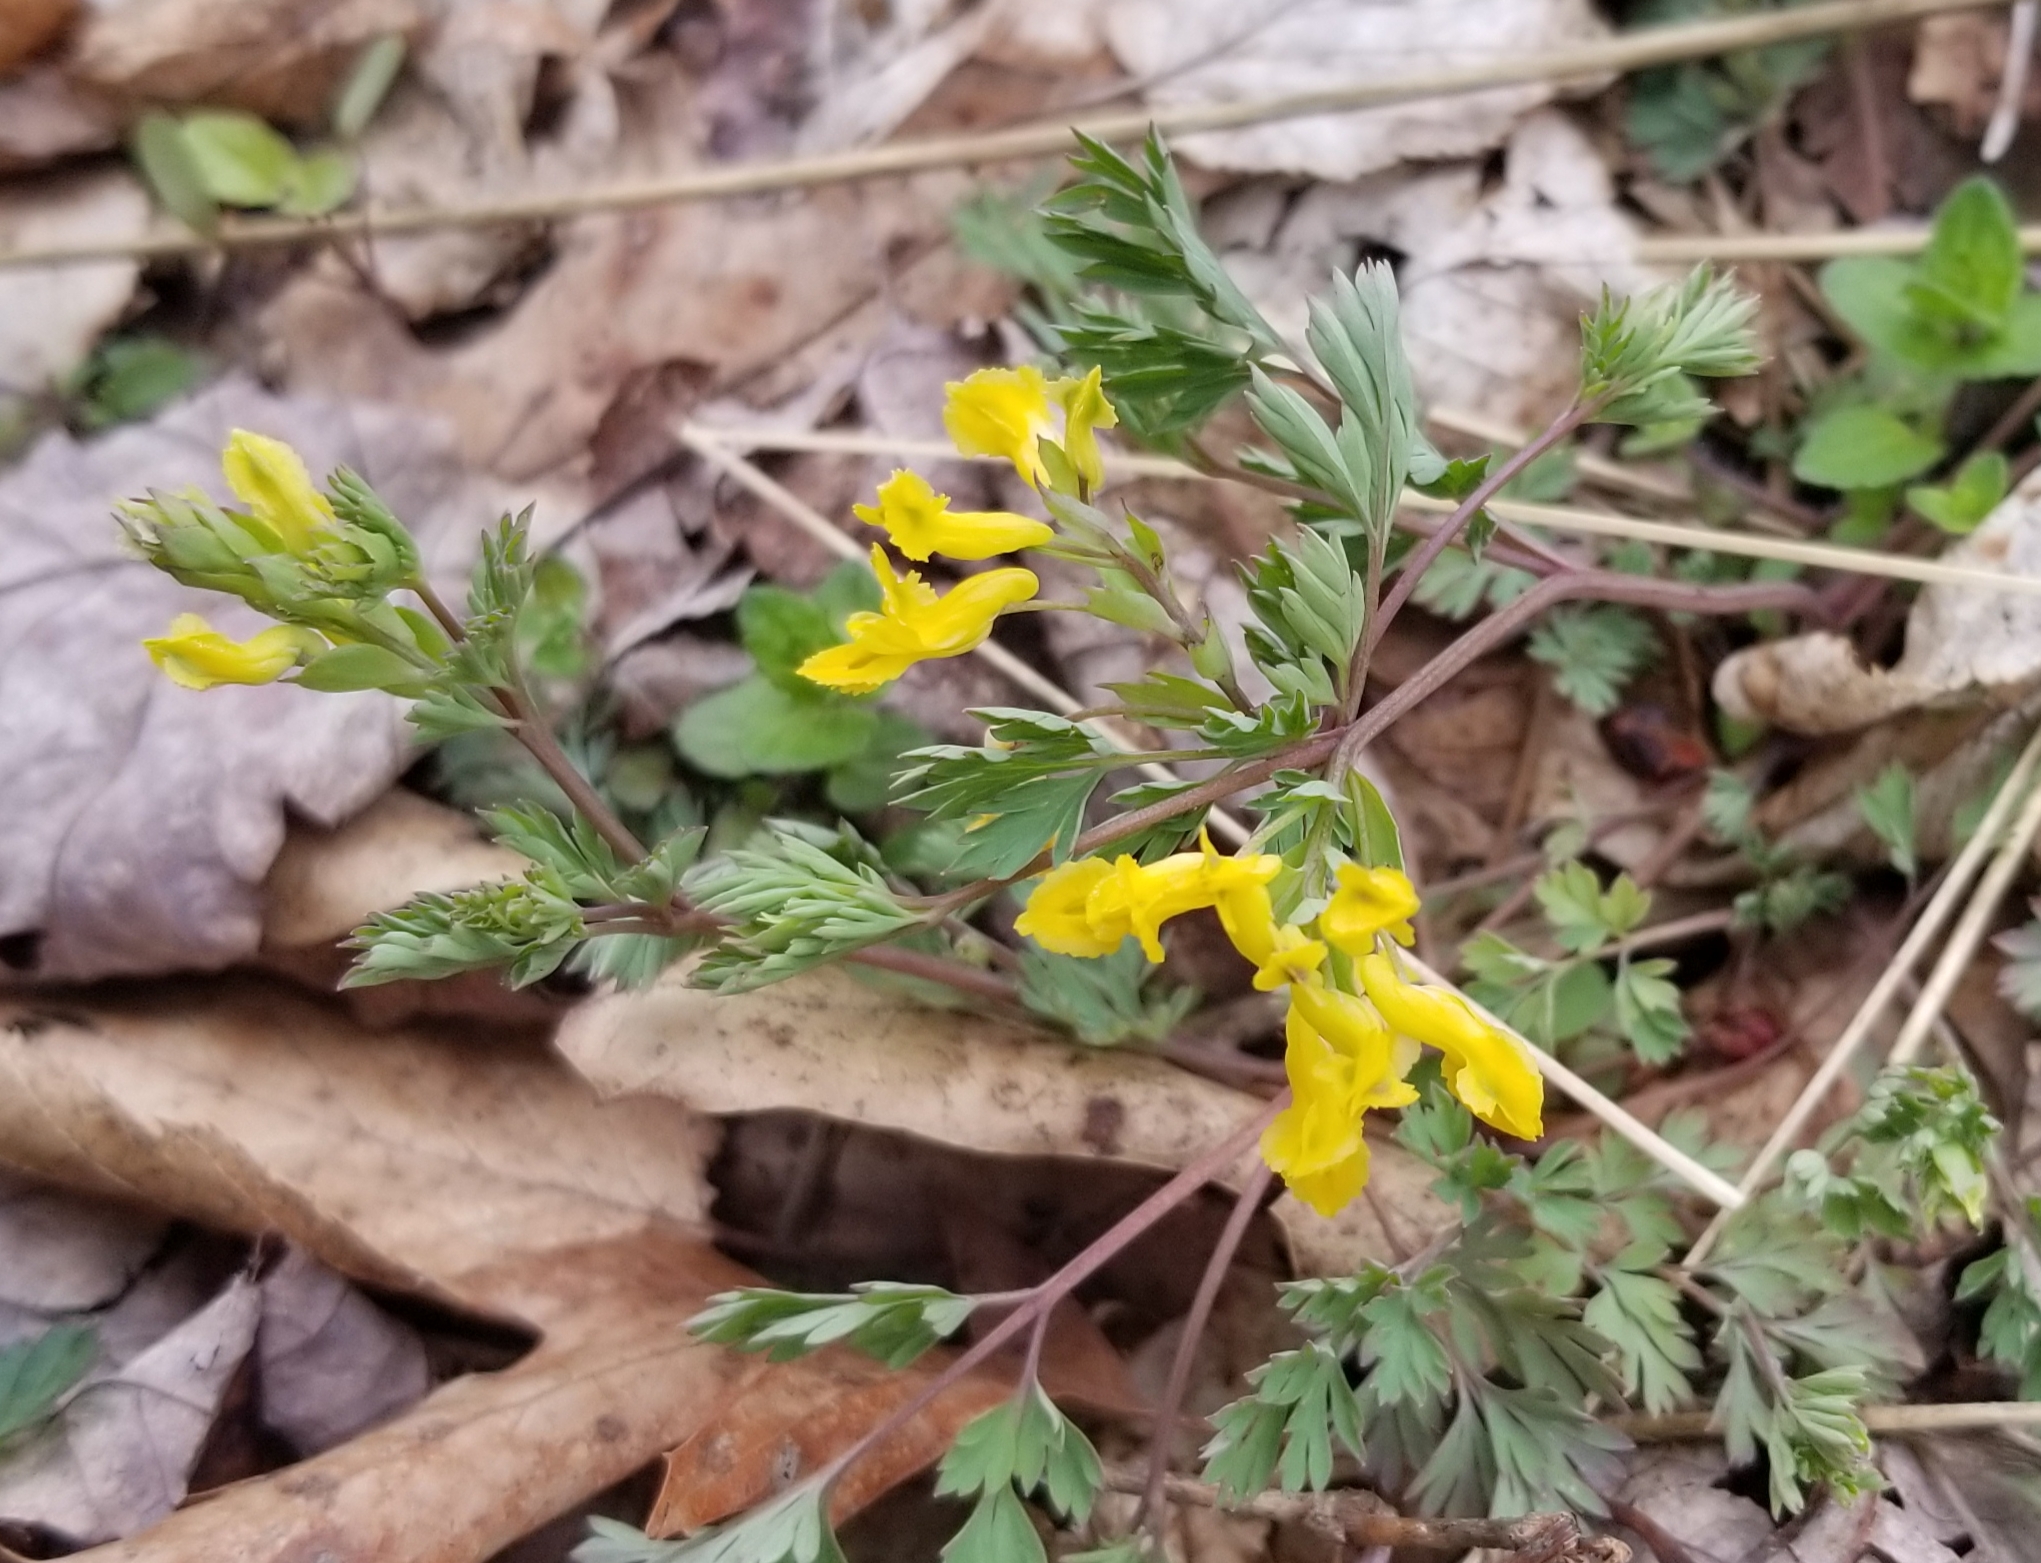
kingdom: Plantae
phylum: Tracheophyta
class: Magnoliopsida
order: Ranunculales
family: Papaveraceae
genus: Corydalis
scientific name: Corydalis flavula
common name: Yellow corydalis
